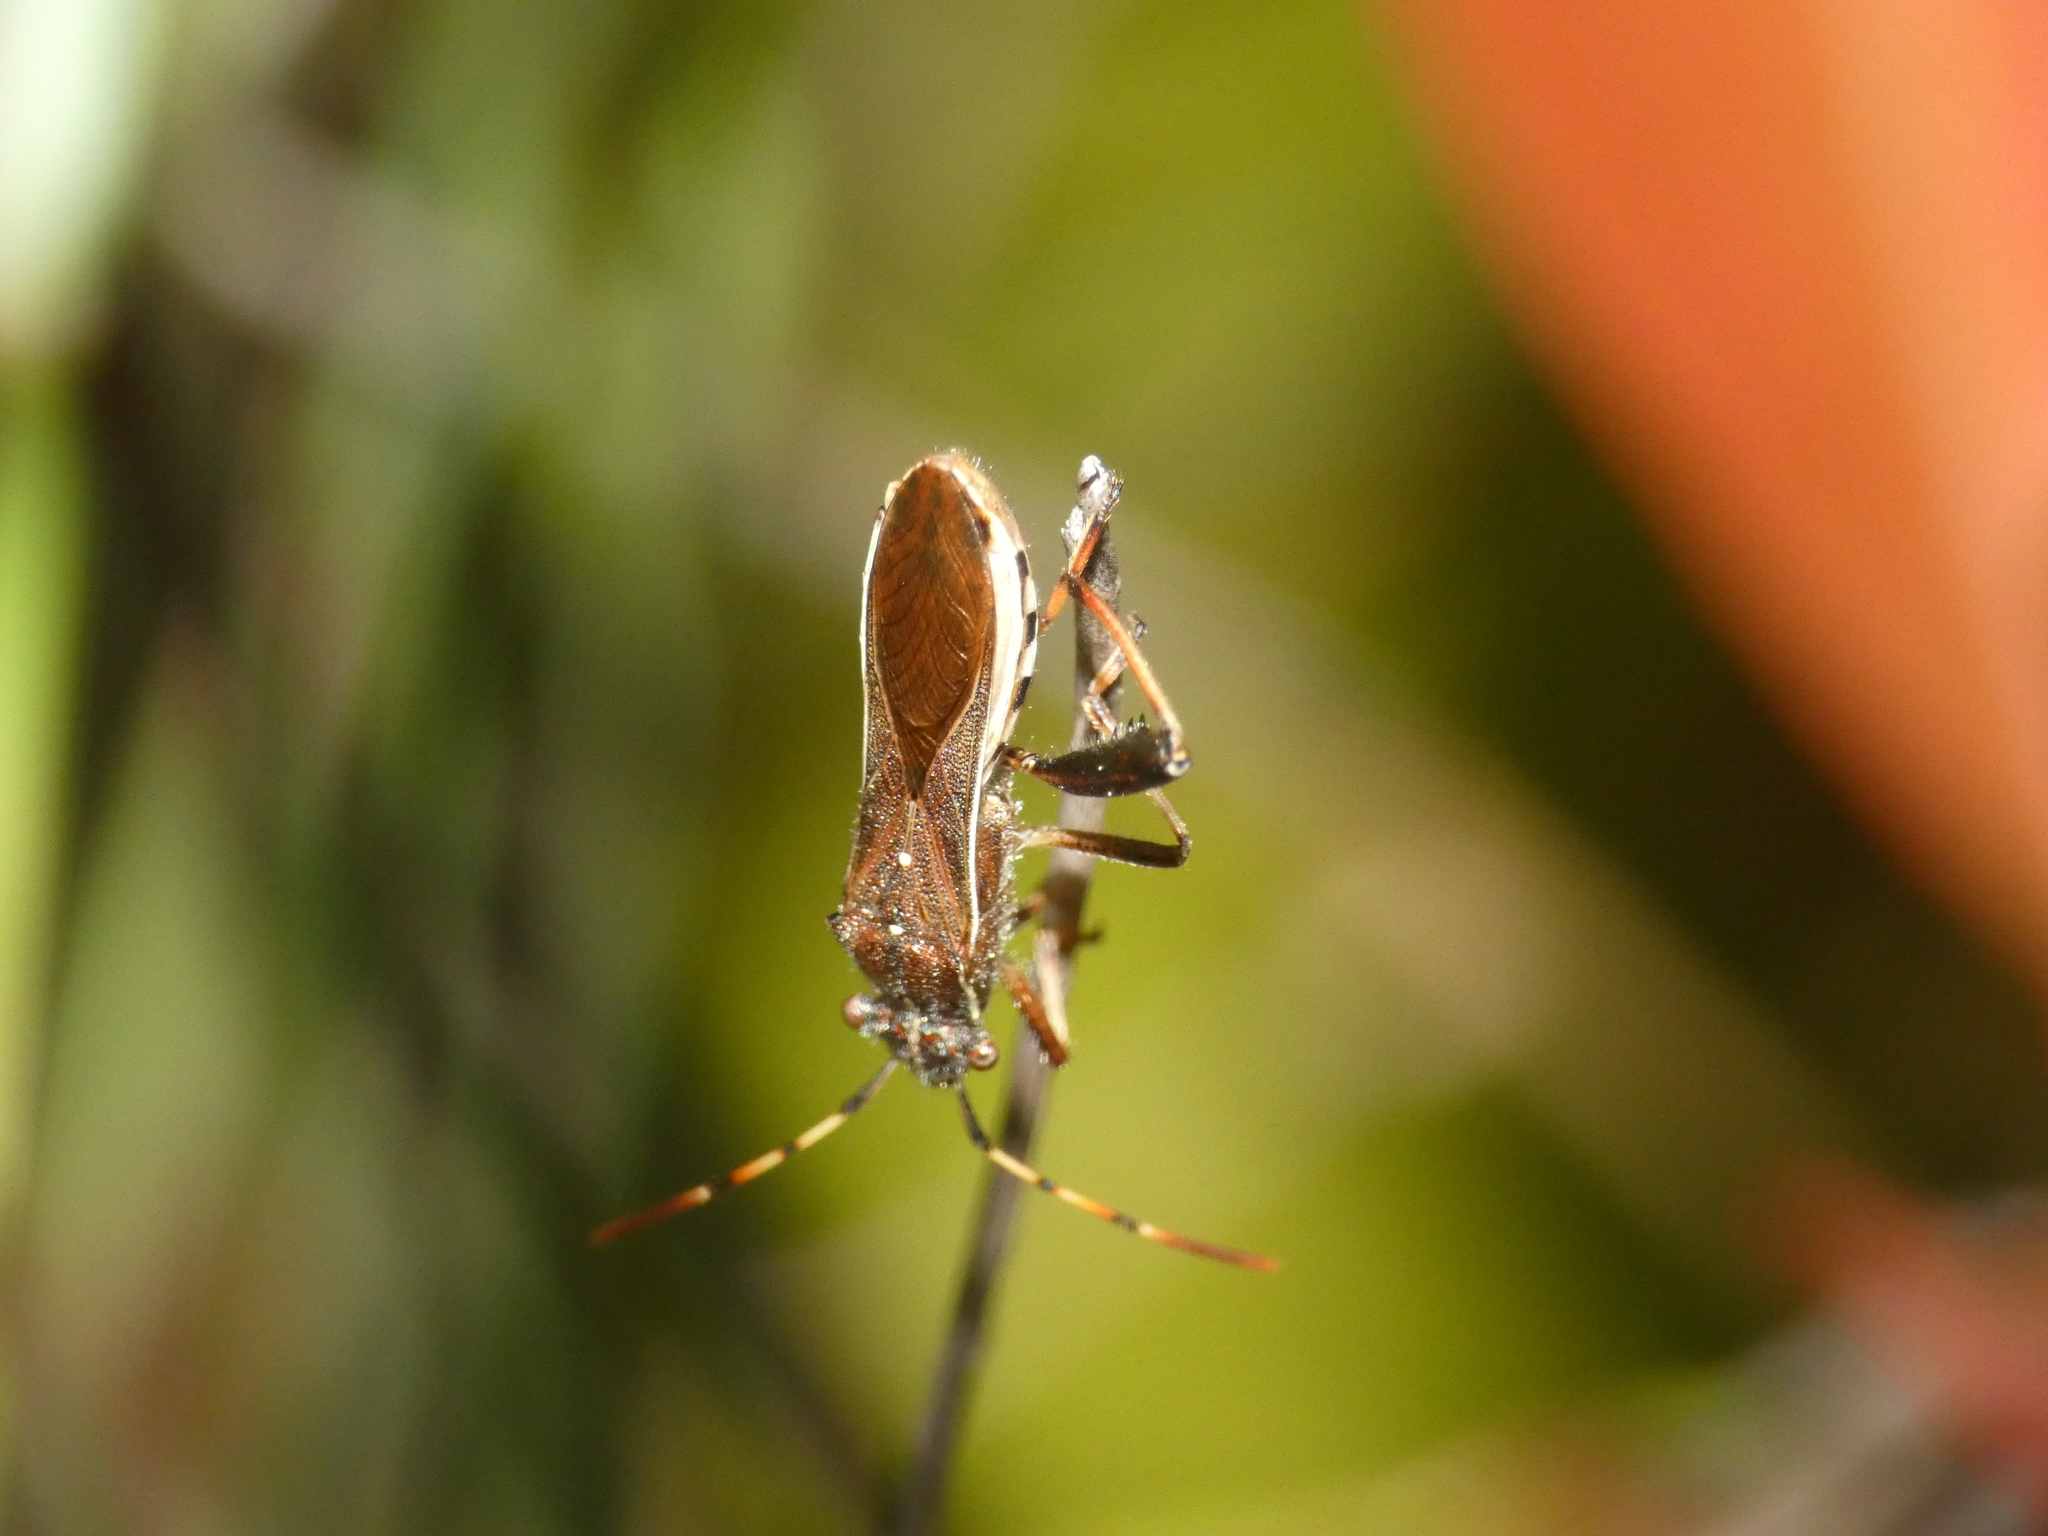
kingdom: Animalia
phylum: Arthropoda
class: Insecta
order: Hemiptera
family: Alydidae
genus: Camptopus
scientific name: Camptopus lateralis
